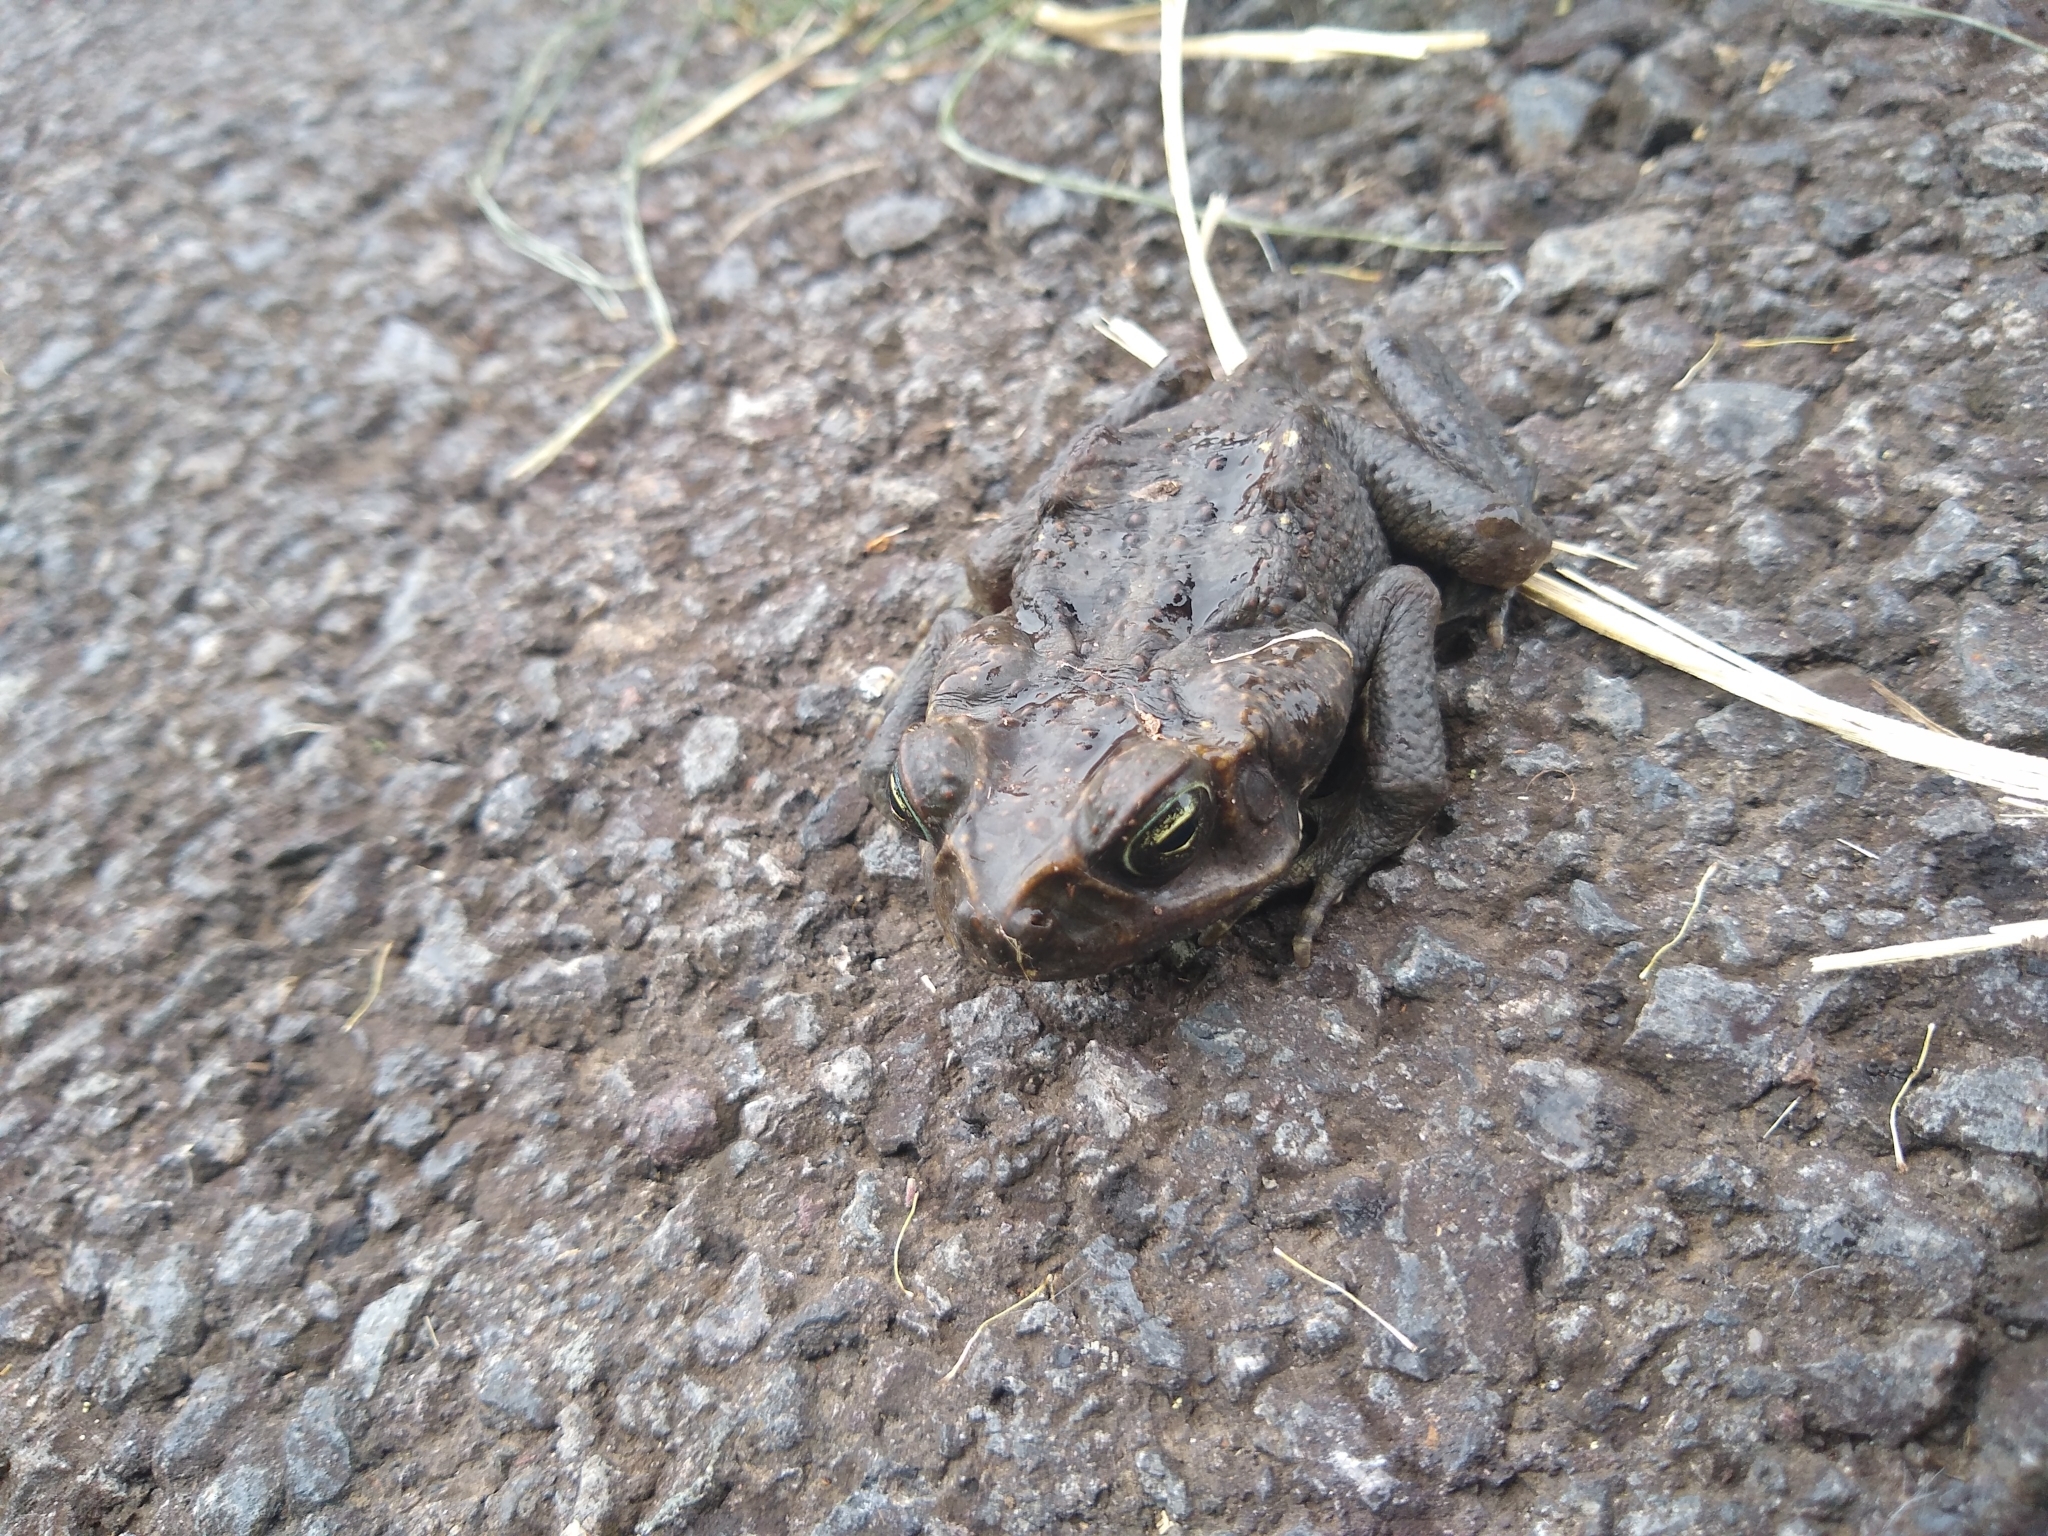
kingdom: Animalia
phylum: Chordata
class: Amphibia
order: Anura
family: Bufonidae
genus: Rhinella
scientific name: Rhinella horribilis
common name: Mesoamerican cane toad
